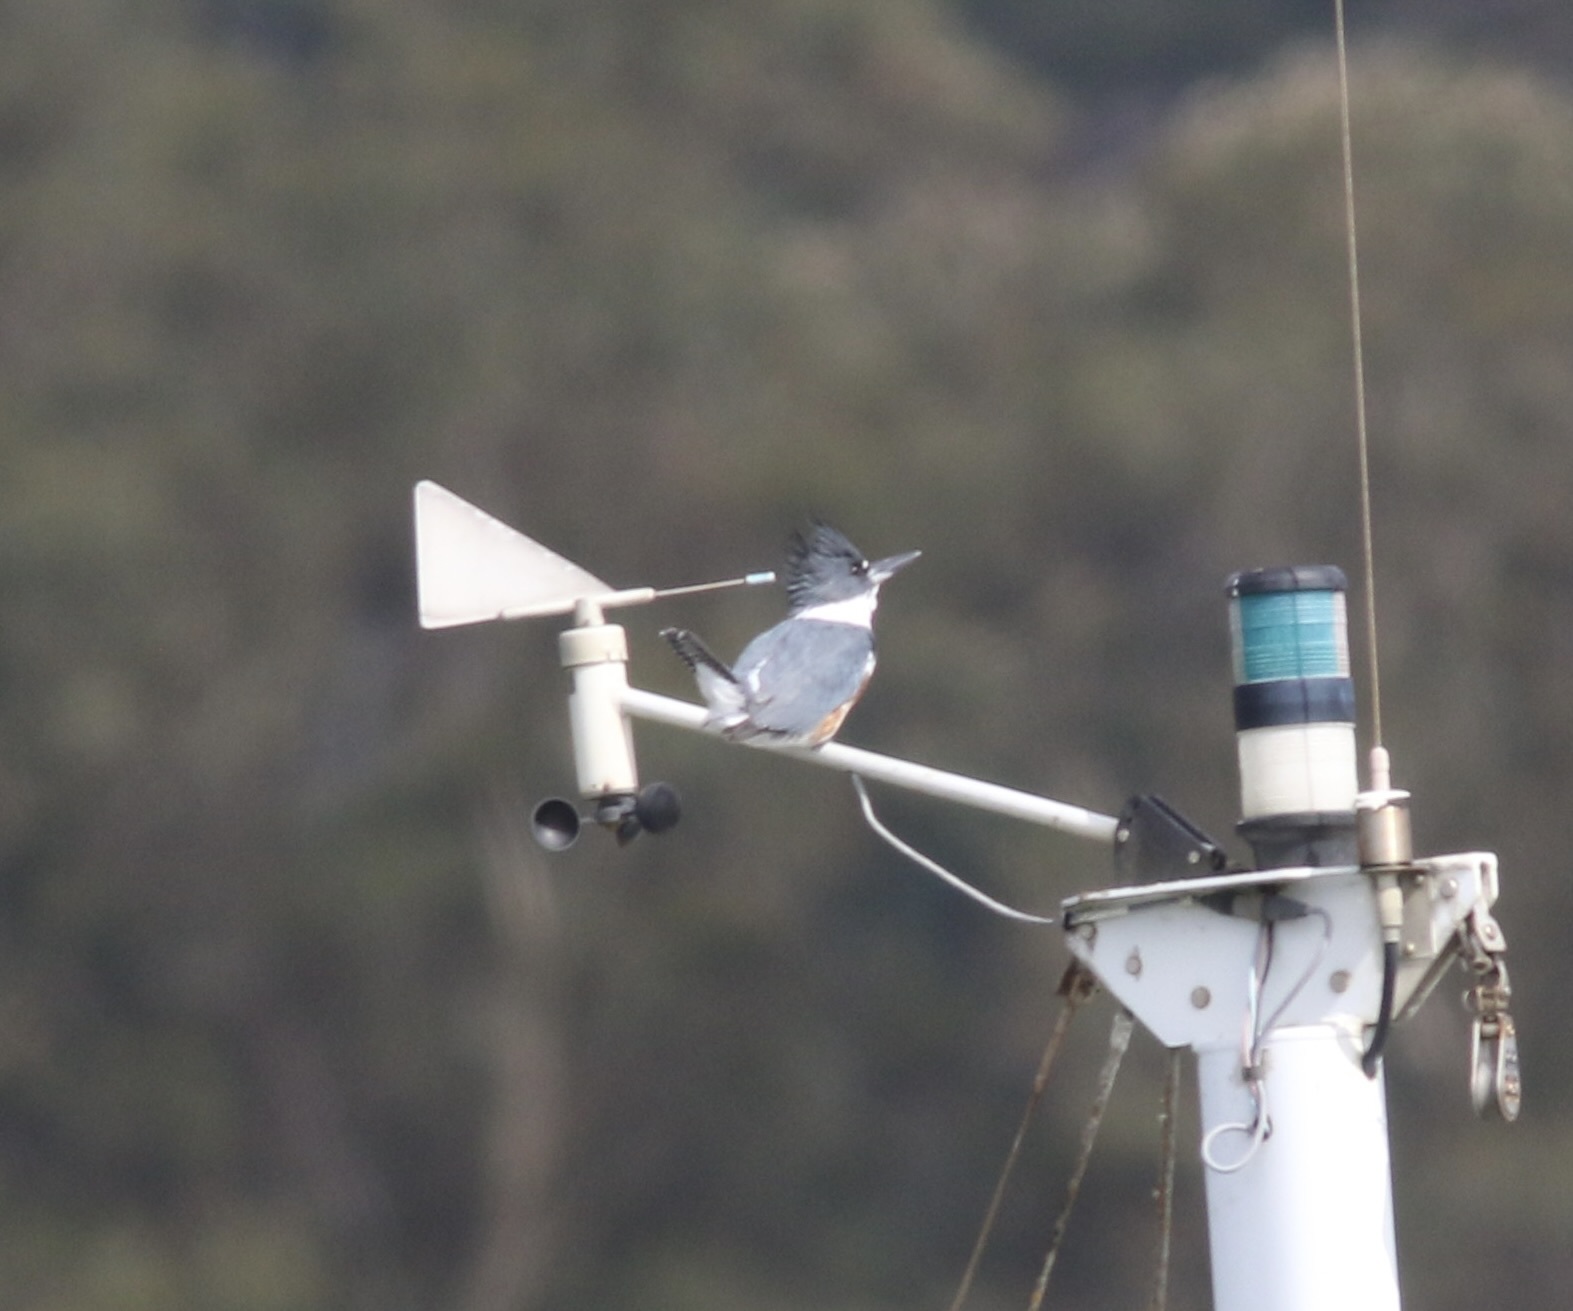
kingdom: Animalia
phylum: Chordata
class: Aves
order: Coraciiformes
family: Alcedinidae
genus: Megaceryle
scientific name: Megaceryle alcyon
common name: Belted kingfisher
